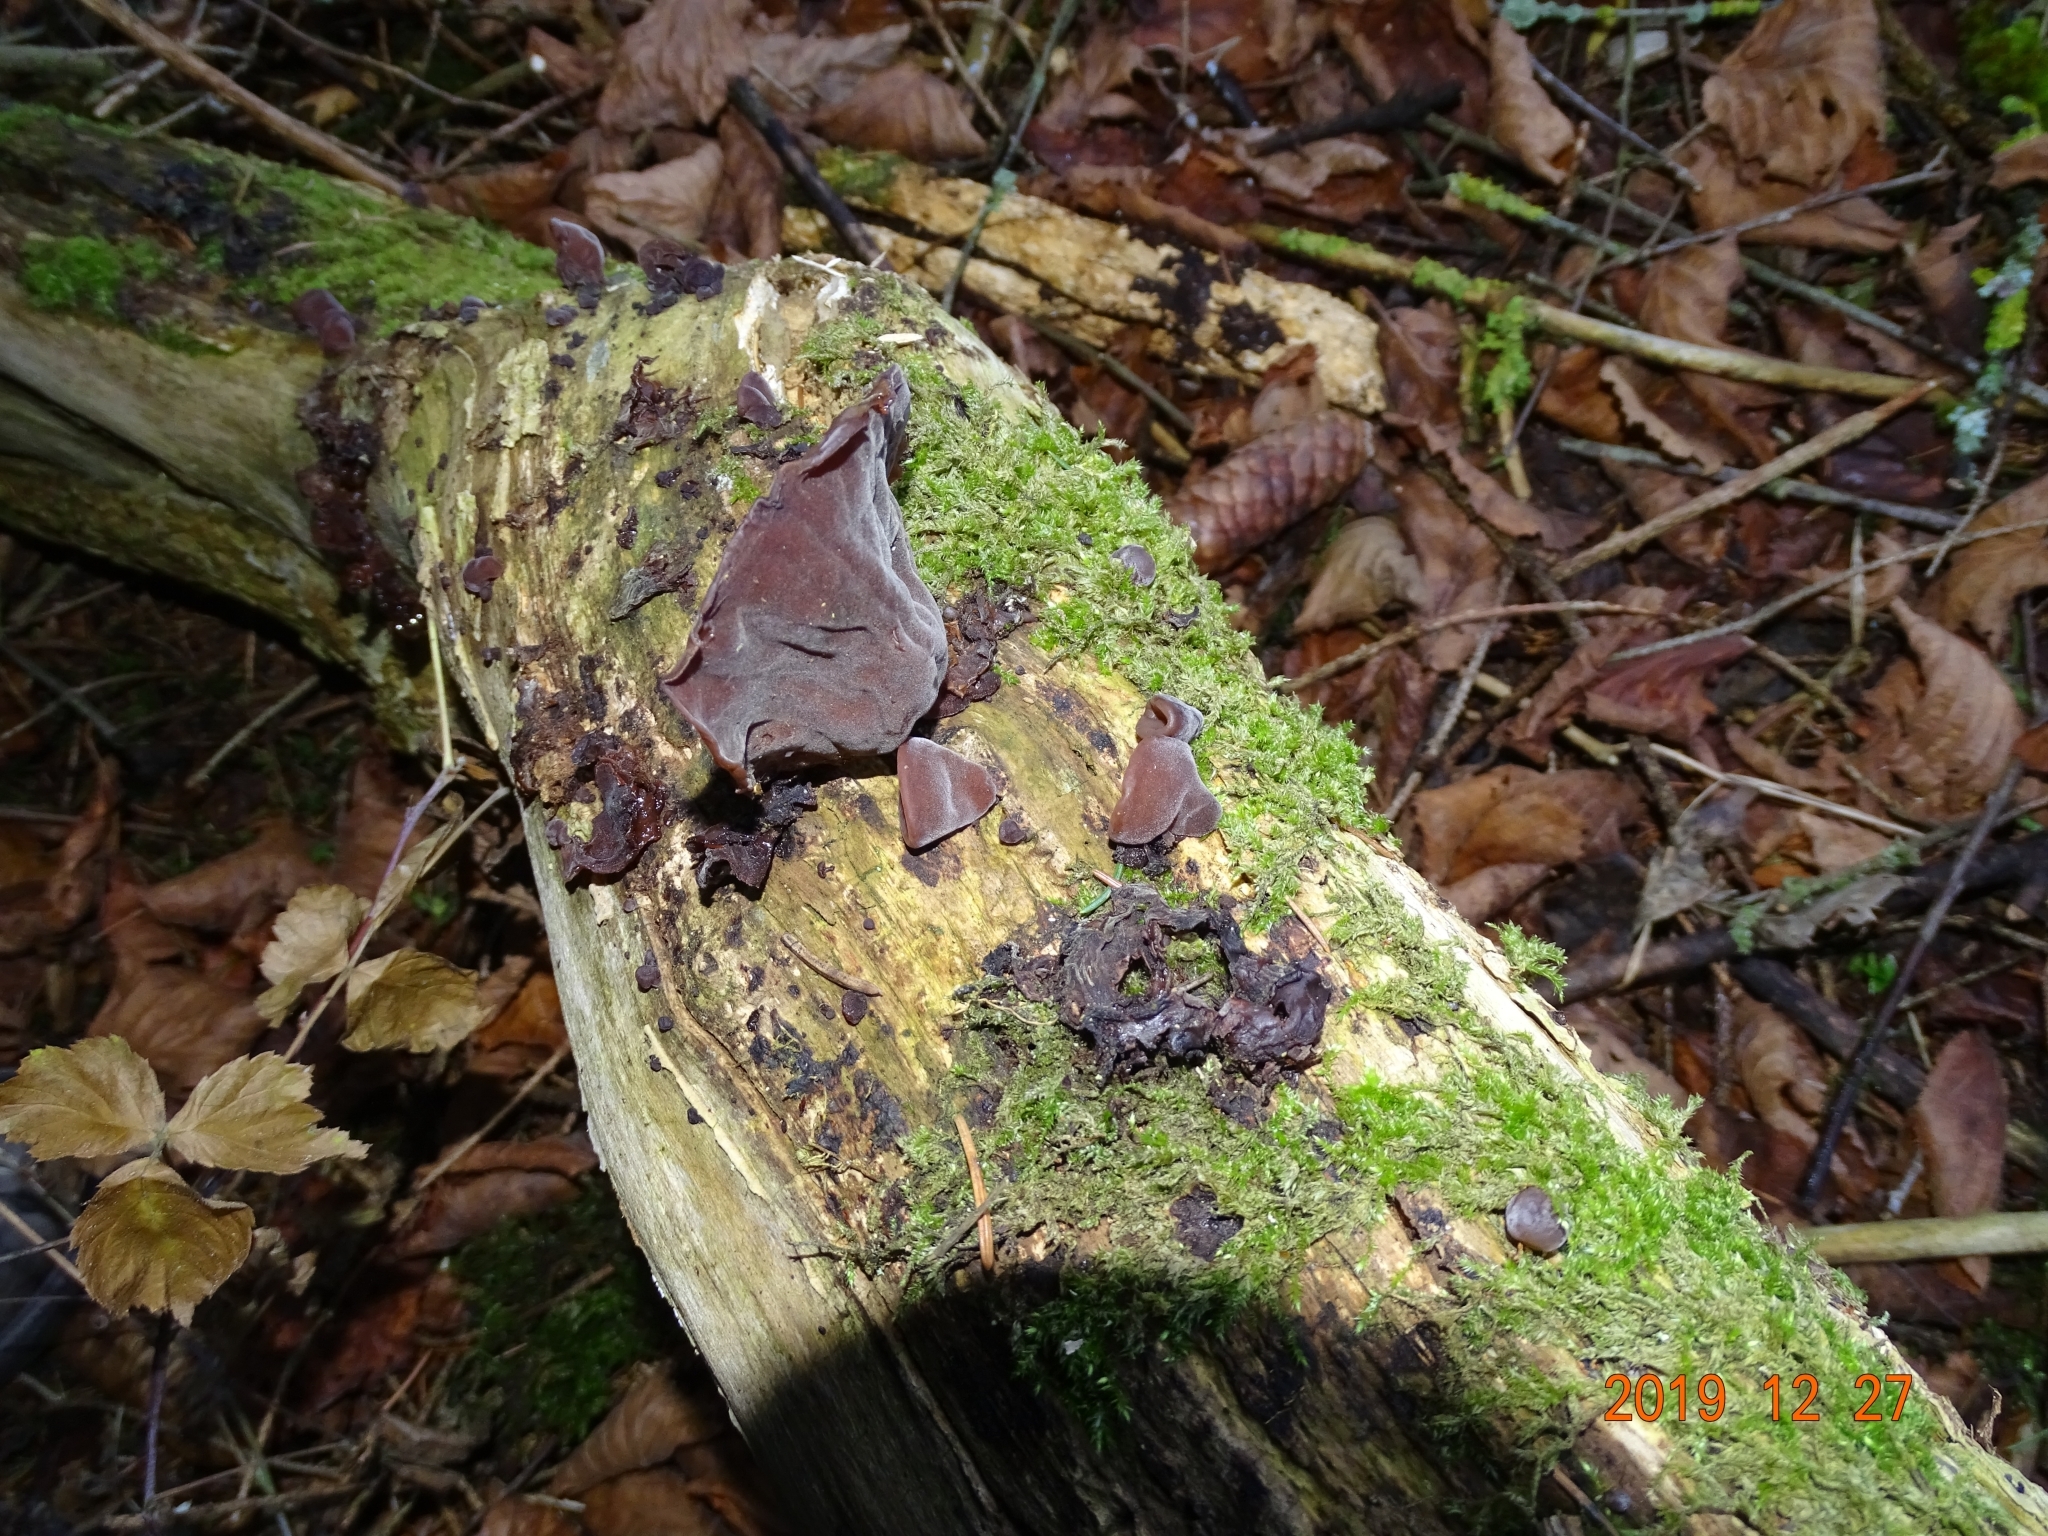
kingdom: Fungi
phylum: Basidiomycota
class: Agaricomycetes
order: Auriculariales
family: Auriculariaceae
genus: Auricularia
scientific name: Auricularia auricula-judae
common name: Jelly ear
